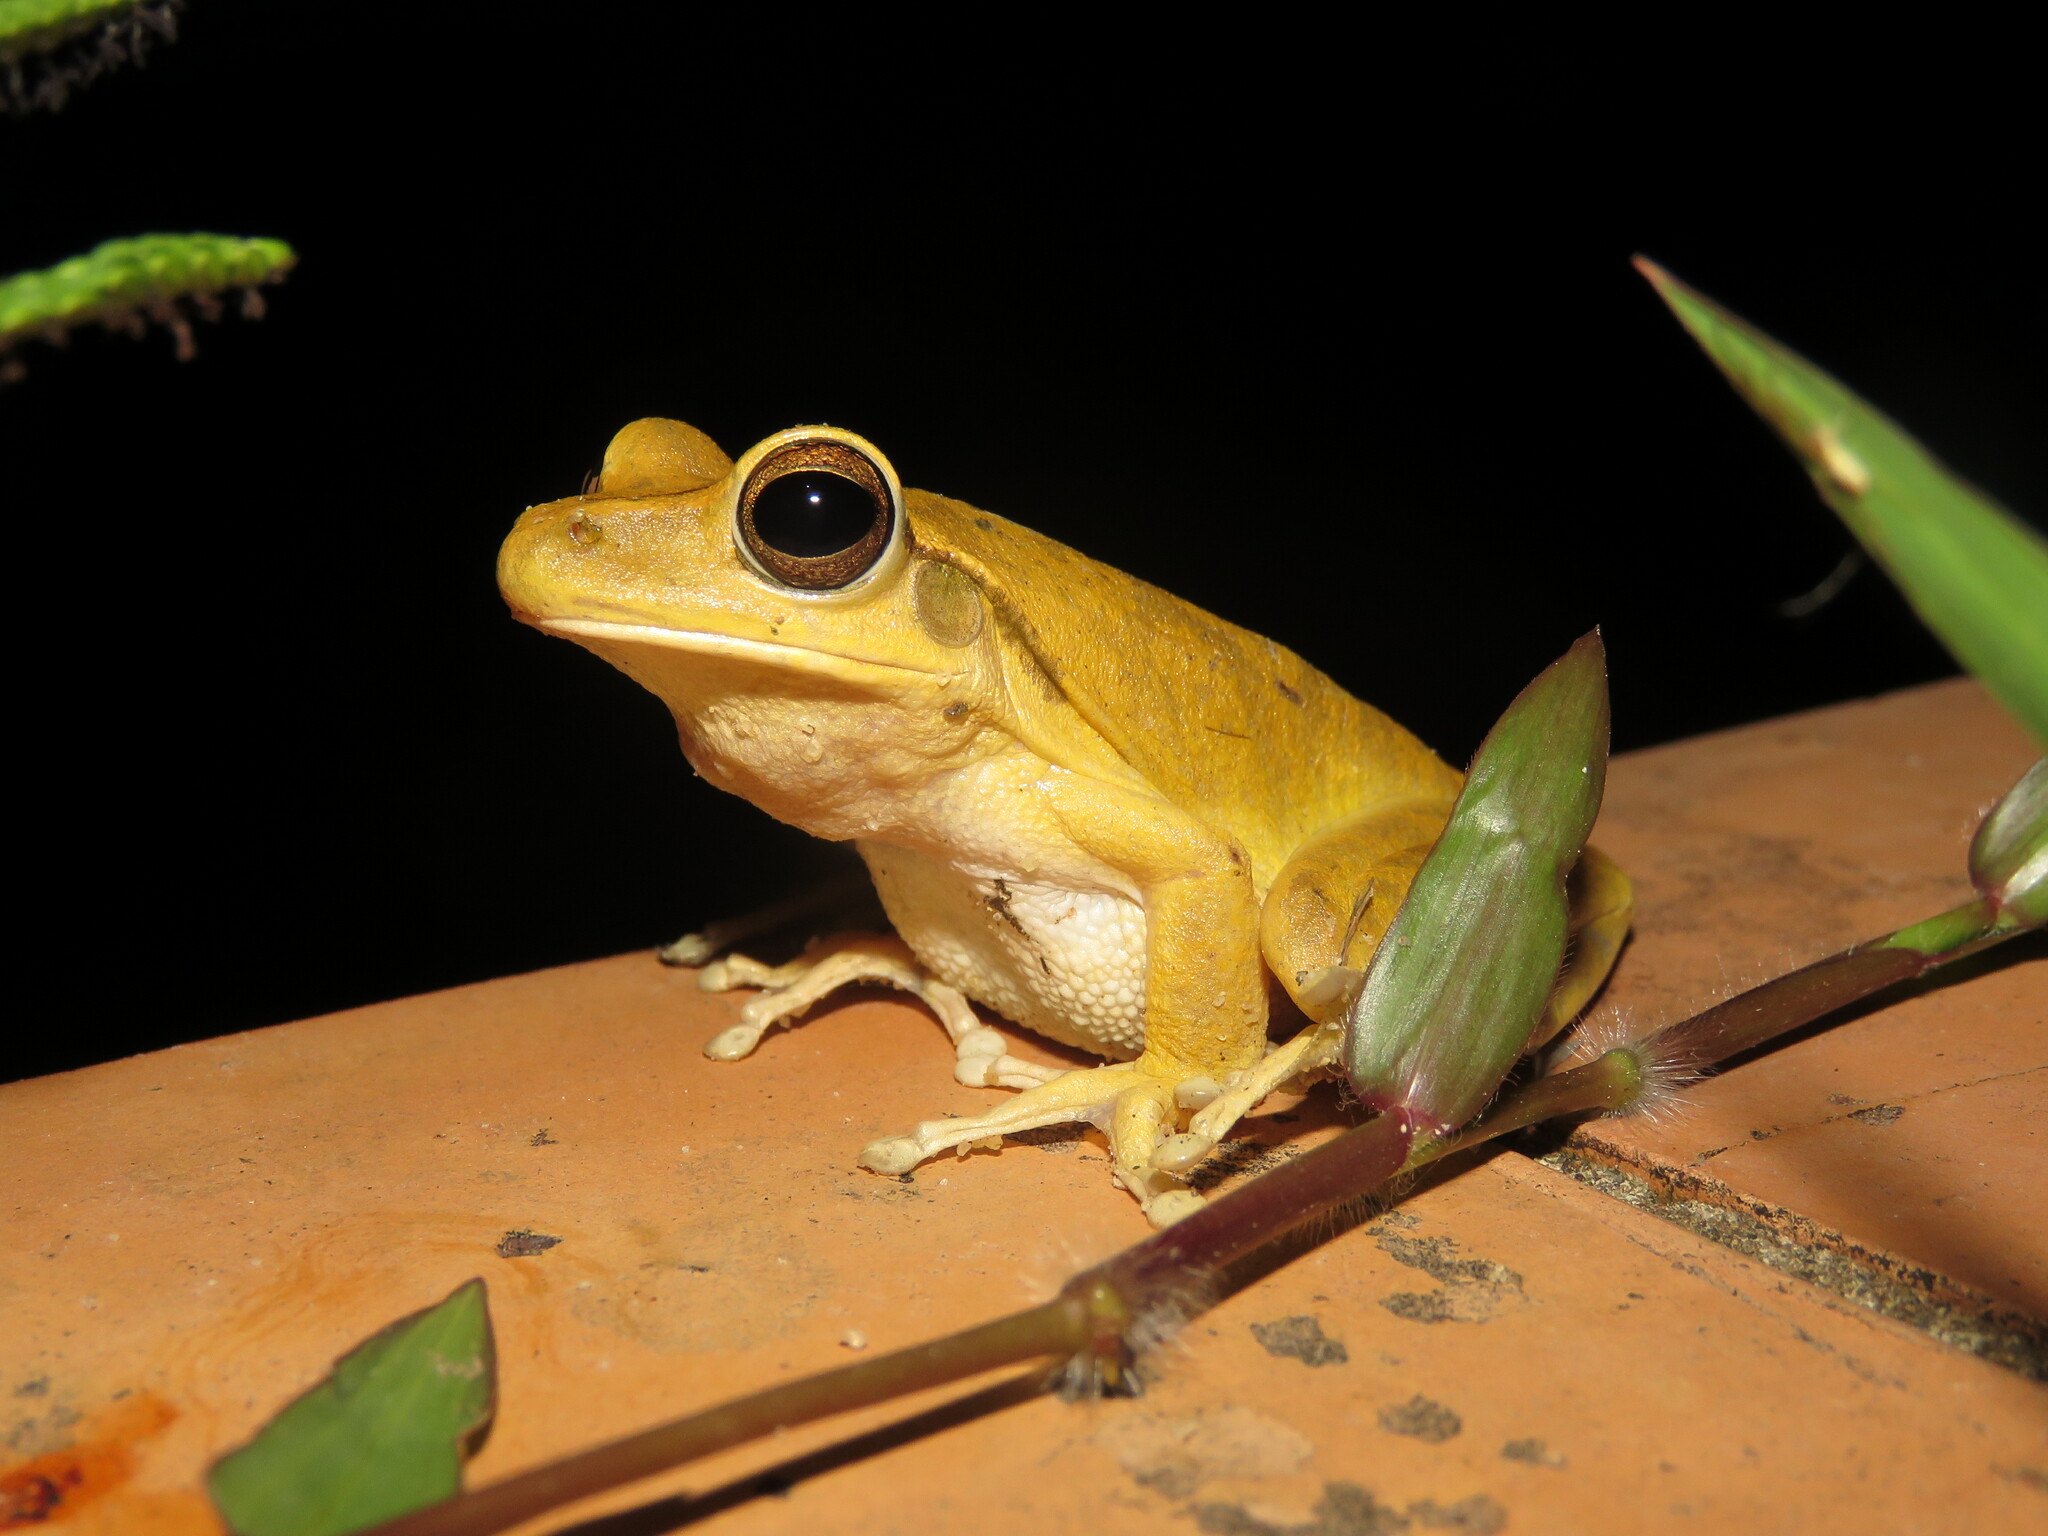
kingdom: Animalia
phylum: Chordata
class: Amphibia
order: Anura
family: Hylidae
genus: Boana
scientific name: Boana raniceps
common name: Chaco treefrog
